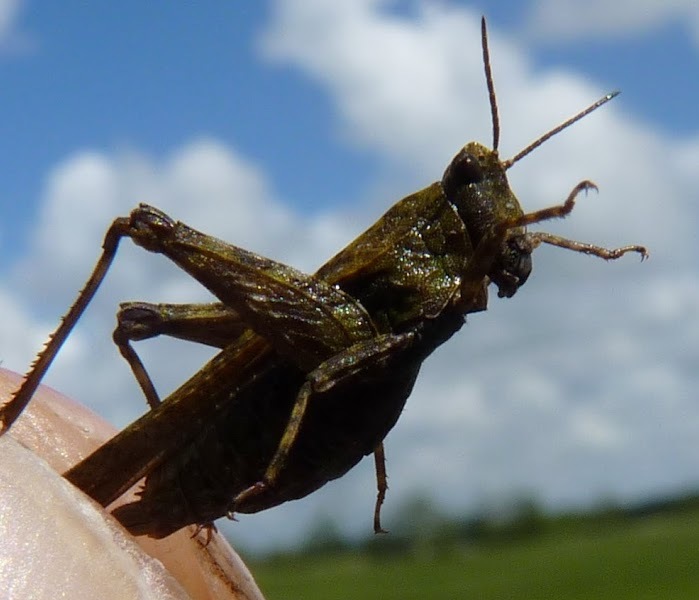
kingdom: Animalia
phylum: Arthropoda
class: Insecta
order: Orthoptera
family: Tetrigidae
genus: Tetrix
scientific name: Tetrix subulata
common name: Slender ground-hopper
